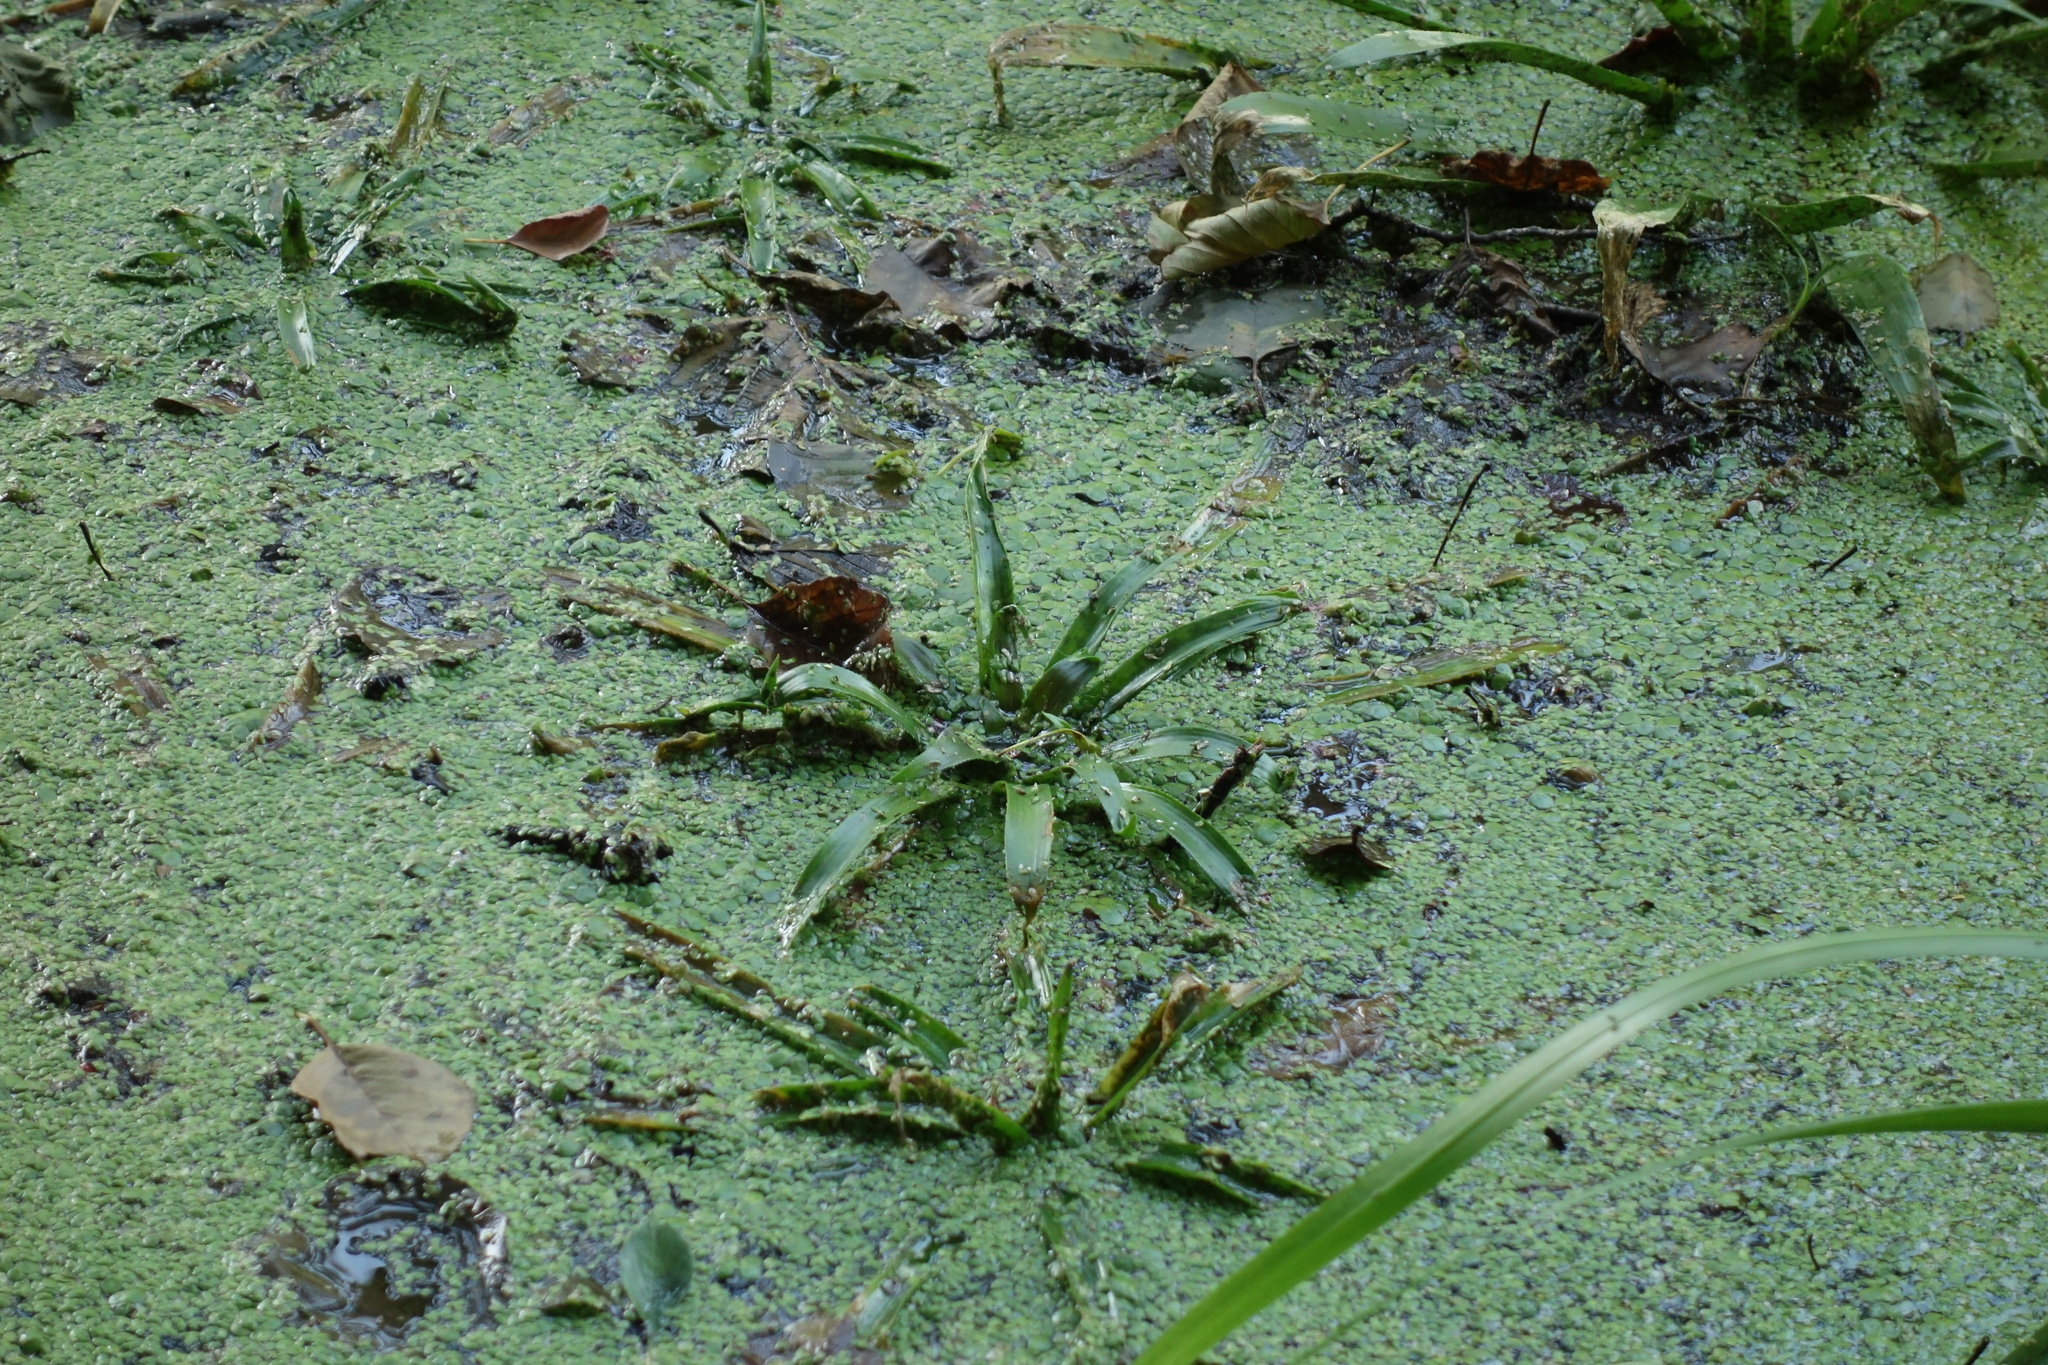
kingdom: Plantae
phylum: Tracheophyta
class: Liliopsida
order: Alismatales
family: Hydrocharitaceae
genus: Stratiotes
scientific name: Stratiotes aloides
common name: Water-soldier
